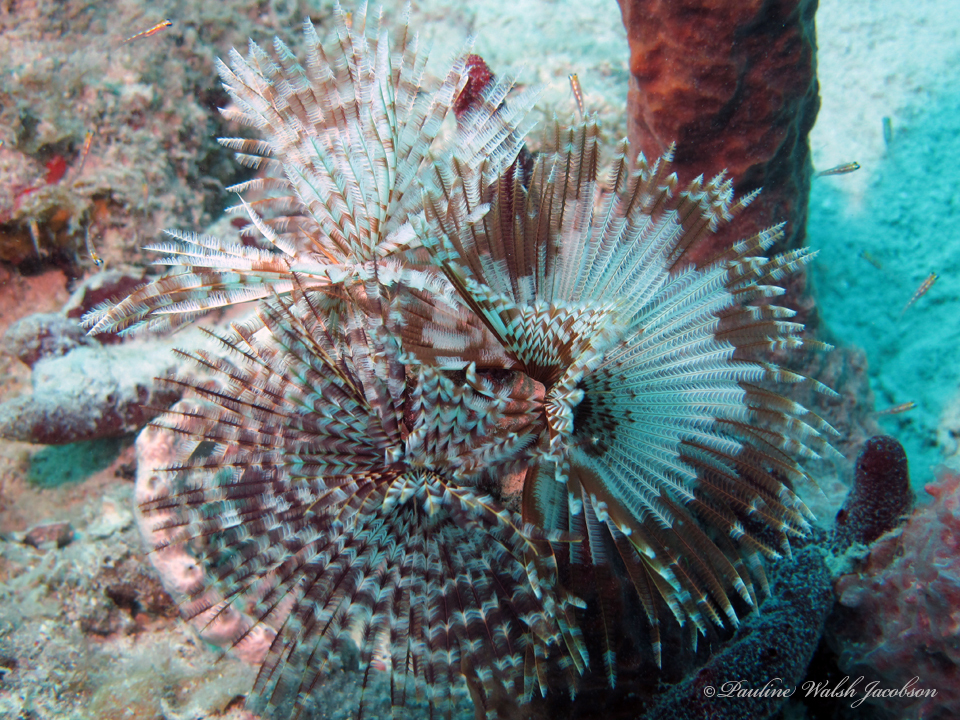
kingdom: Animalia
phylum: Annelida
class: Polychaeta
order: Sabellida
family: Sabellidae
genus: Sabellastarte
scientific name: Sabellastarte magnifica
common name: Giant feather-duster worm
